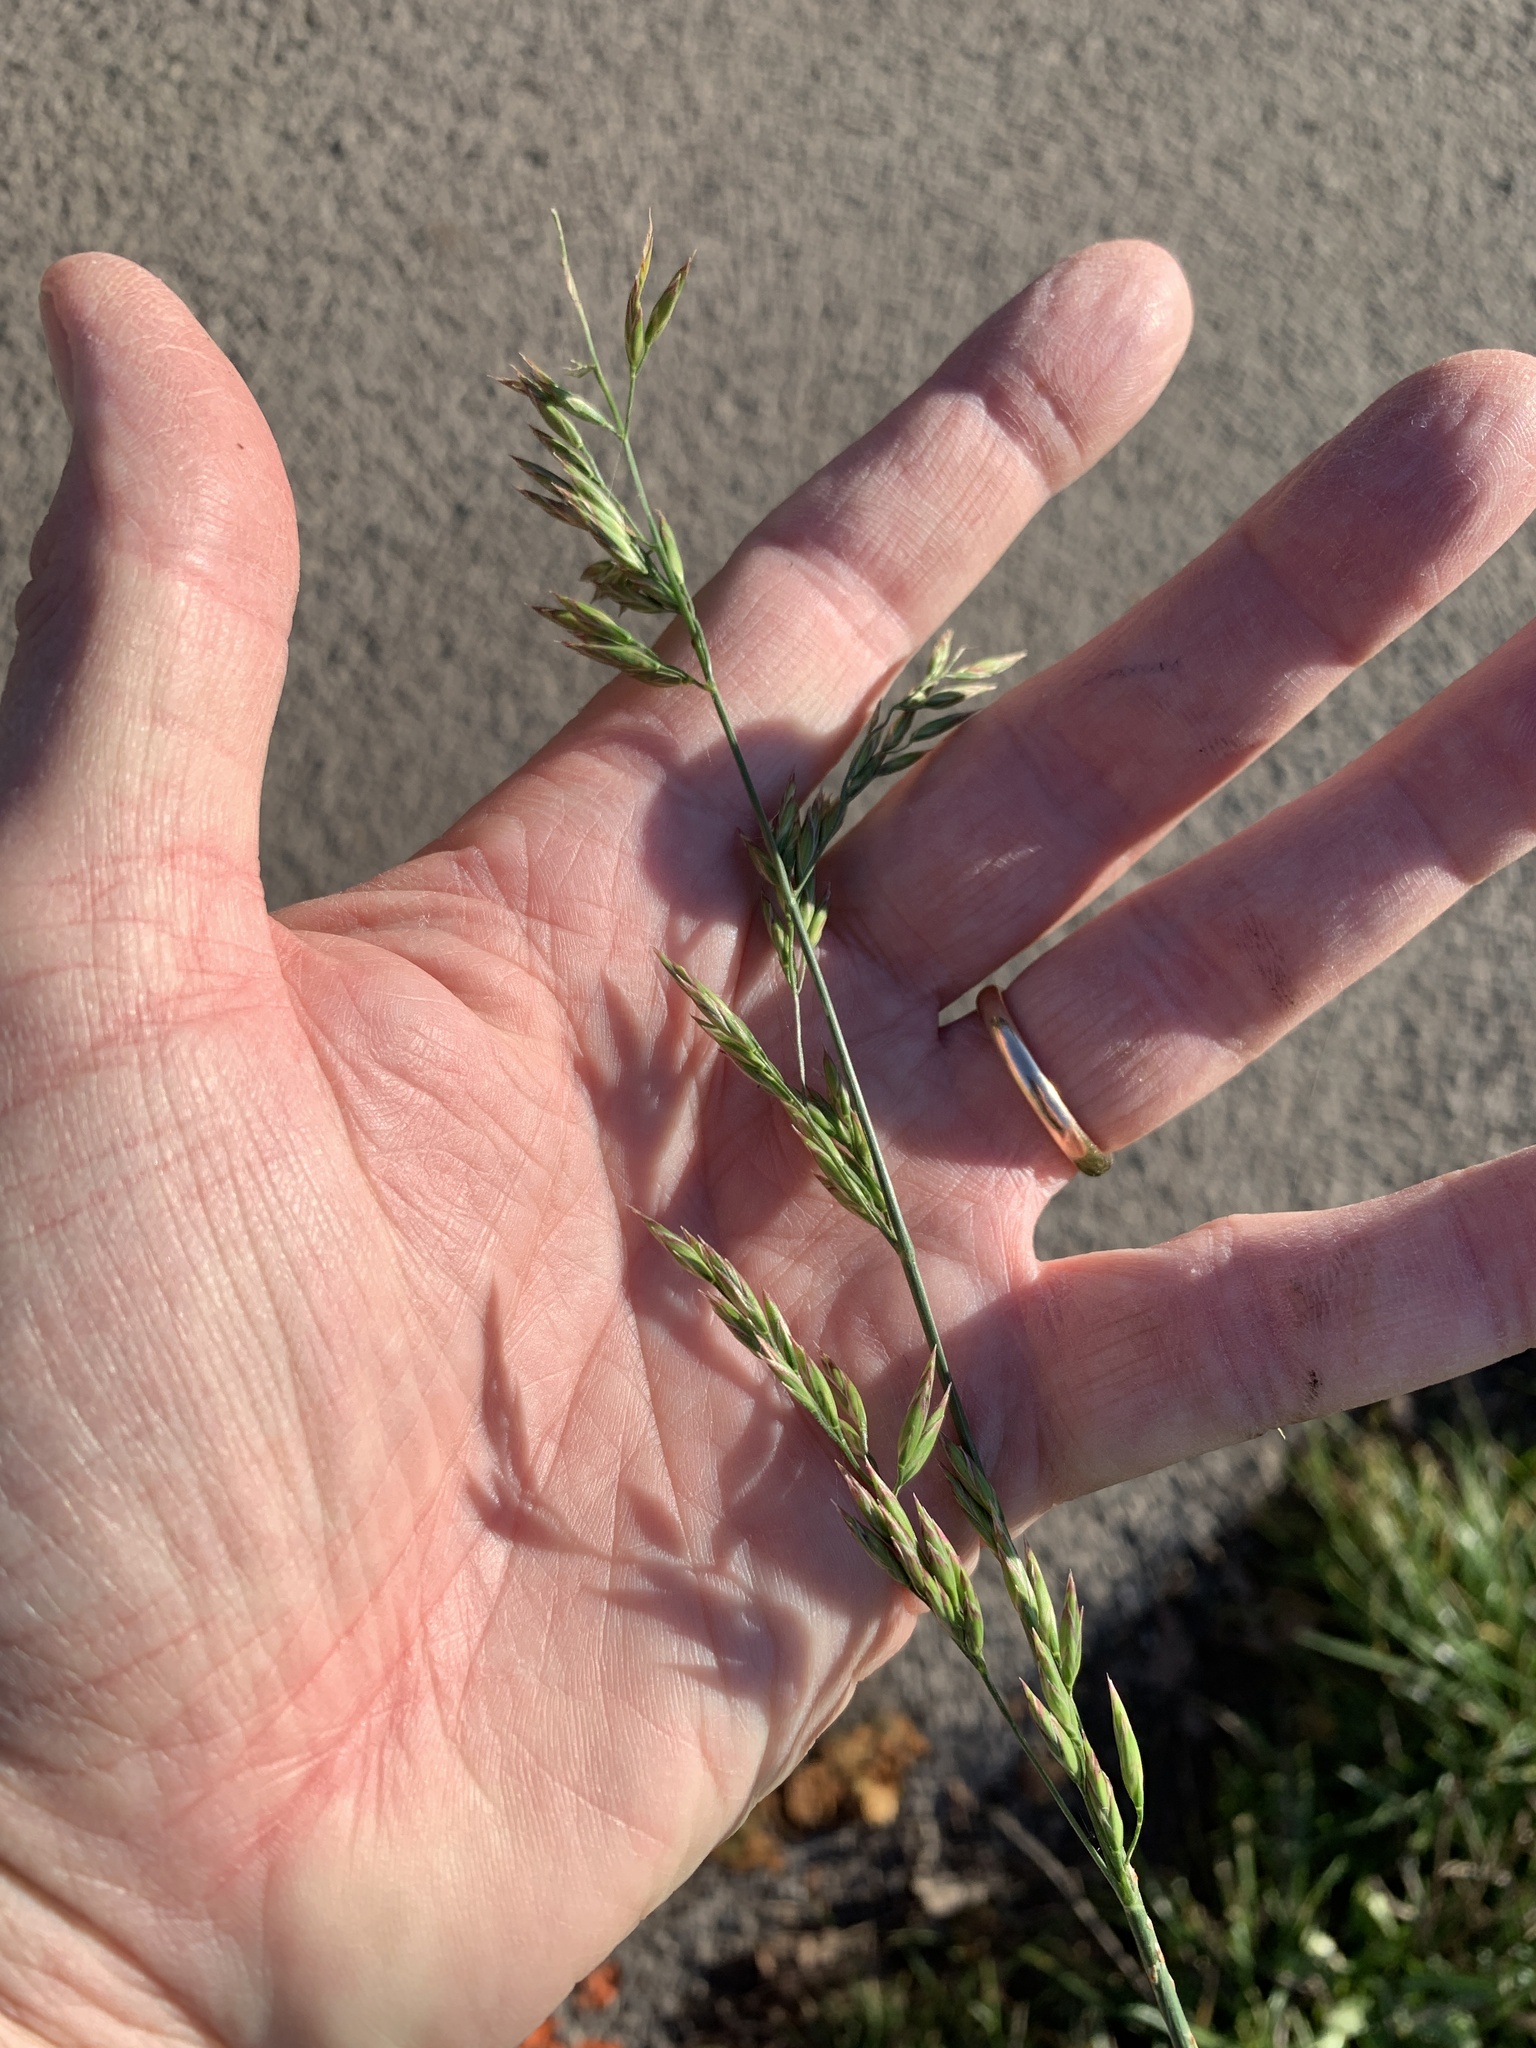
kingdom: Plantae
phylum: Tracheophyta
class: Liliopsida
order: Poales
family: Poaceae
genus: Lolium
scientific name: Lolium arundinaceum
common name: Reed fescue
